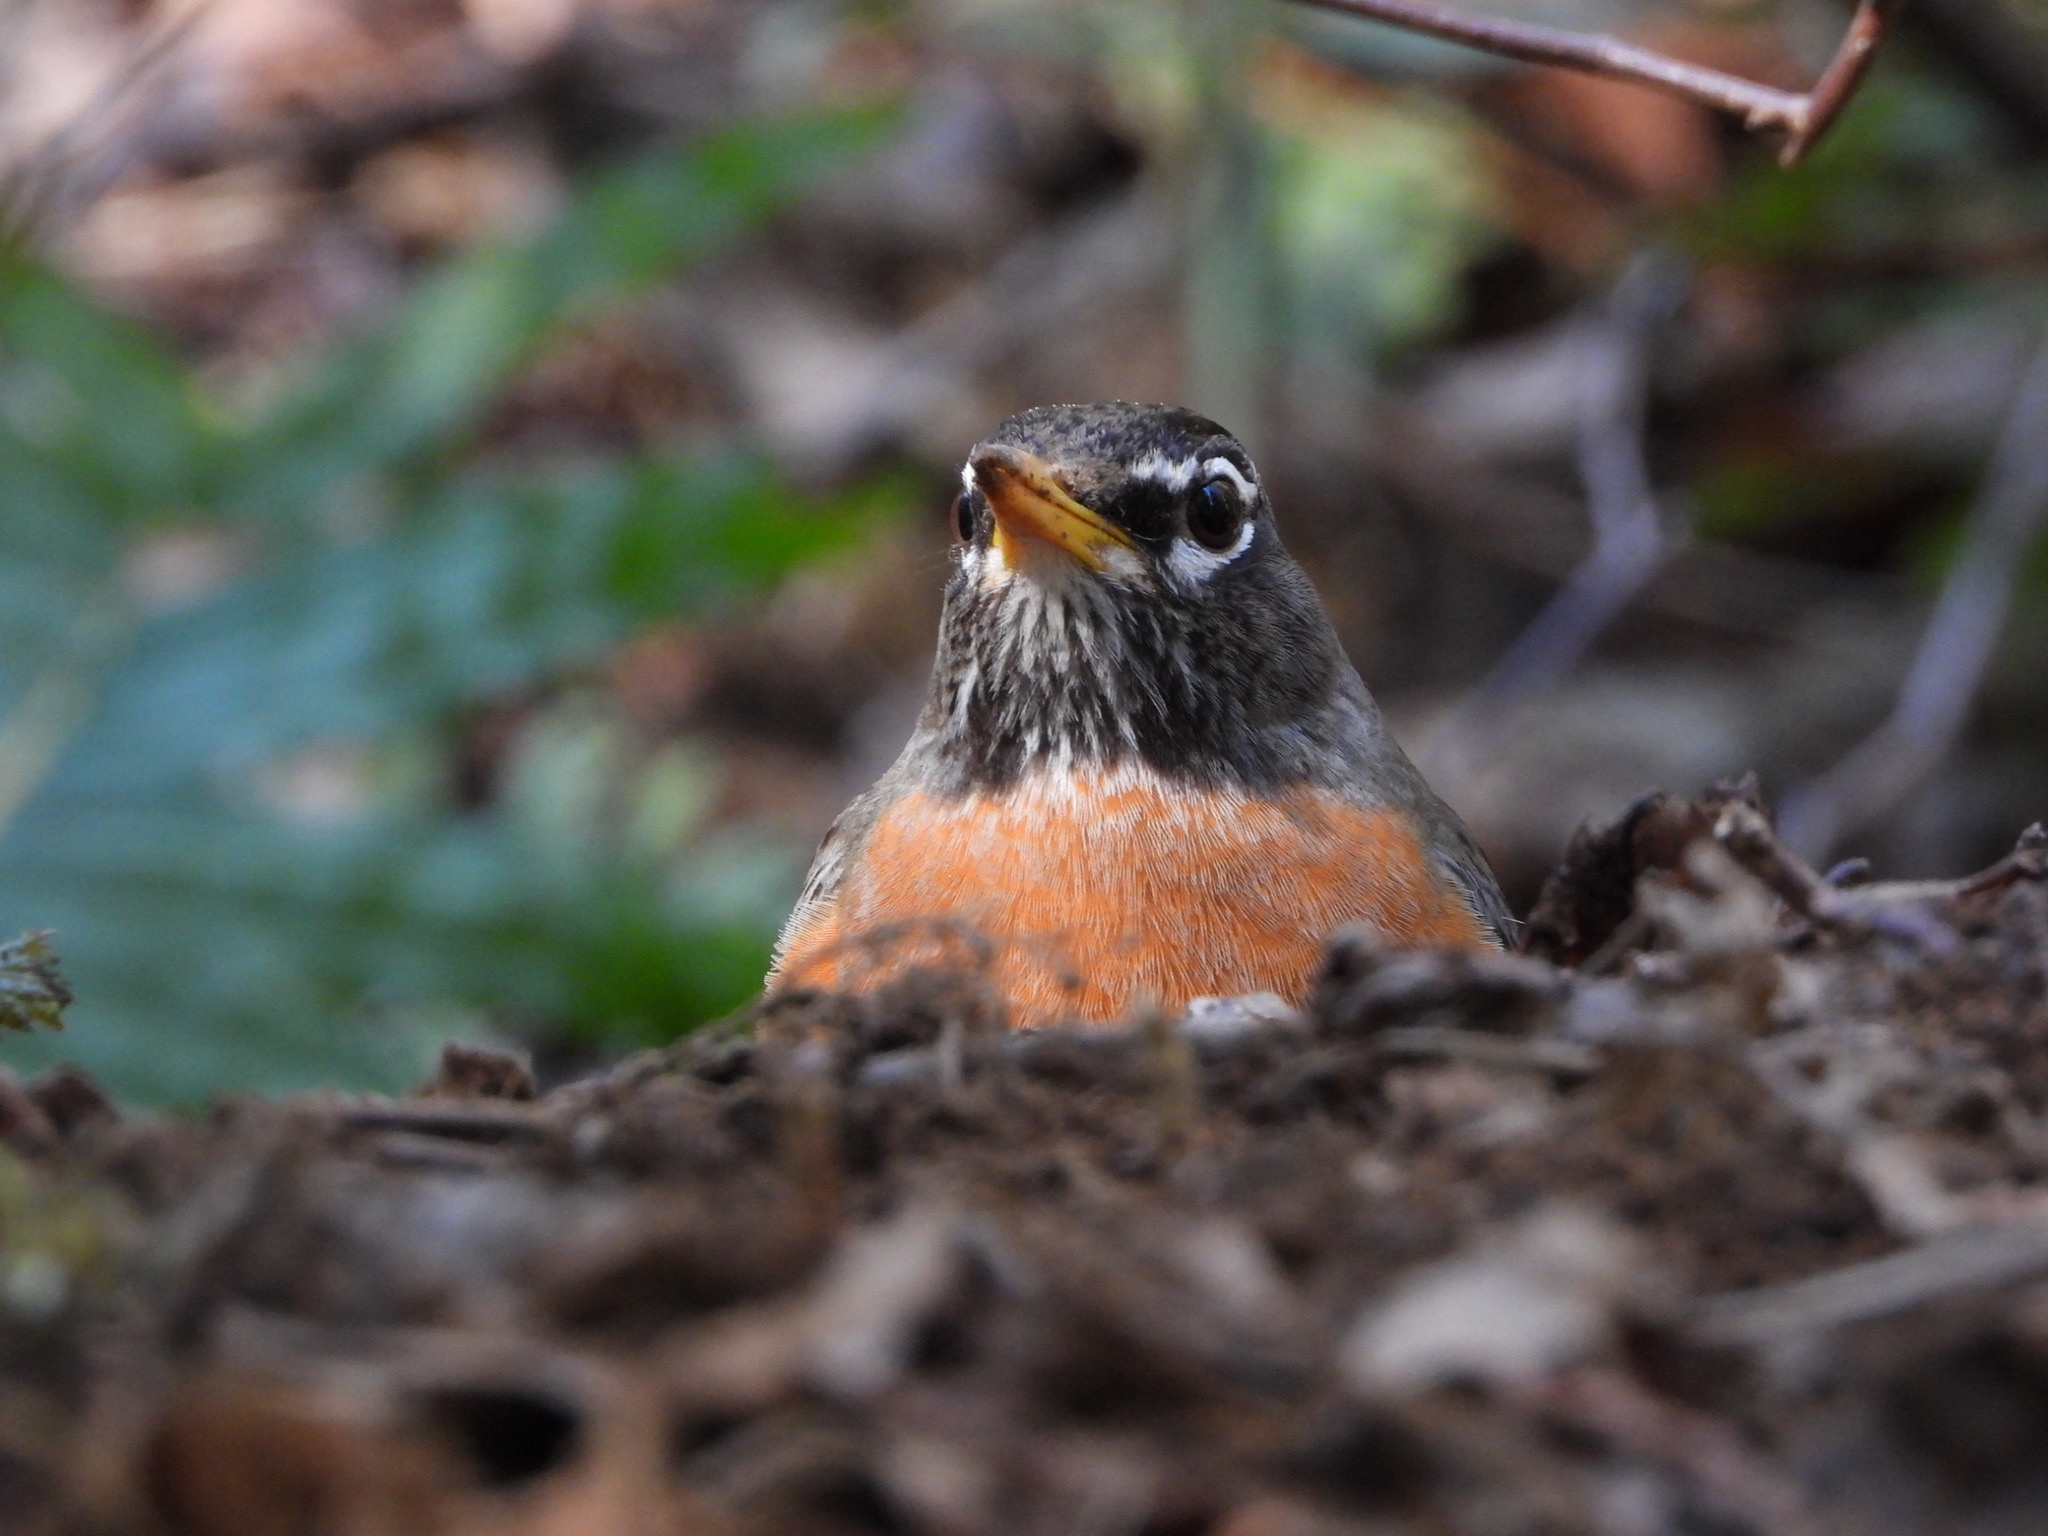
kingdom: Animalia
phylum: Chordata
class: Aves
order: Passeriformes
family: Turdidae
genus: Turdus
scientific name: Turdus migratorius
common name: American robin
